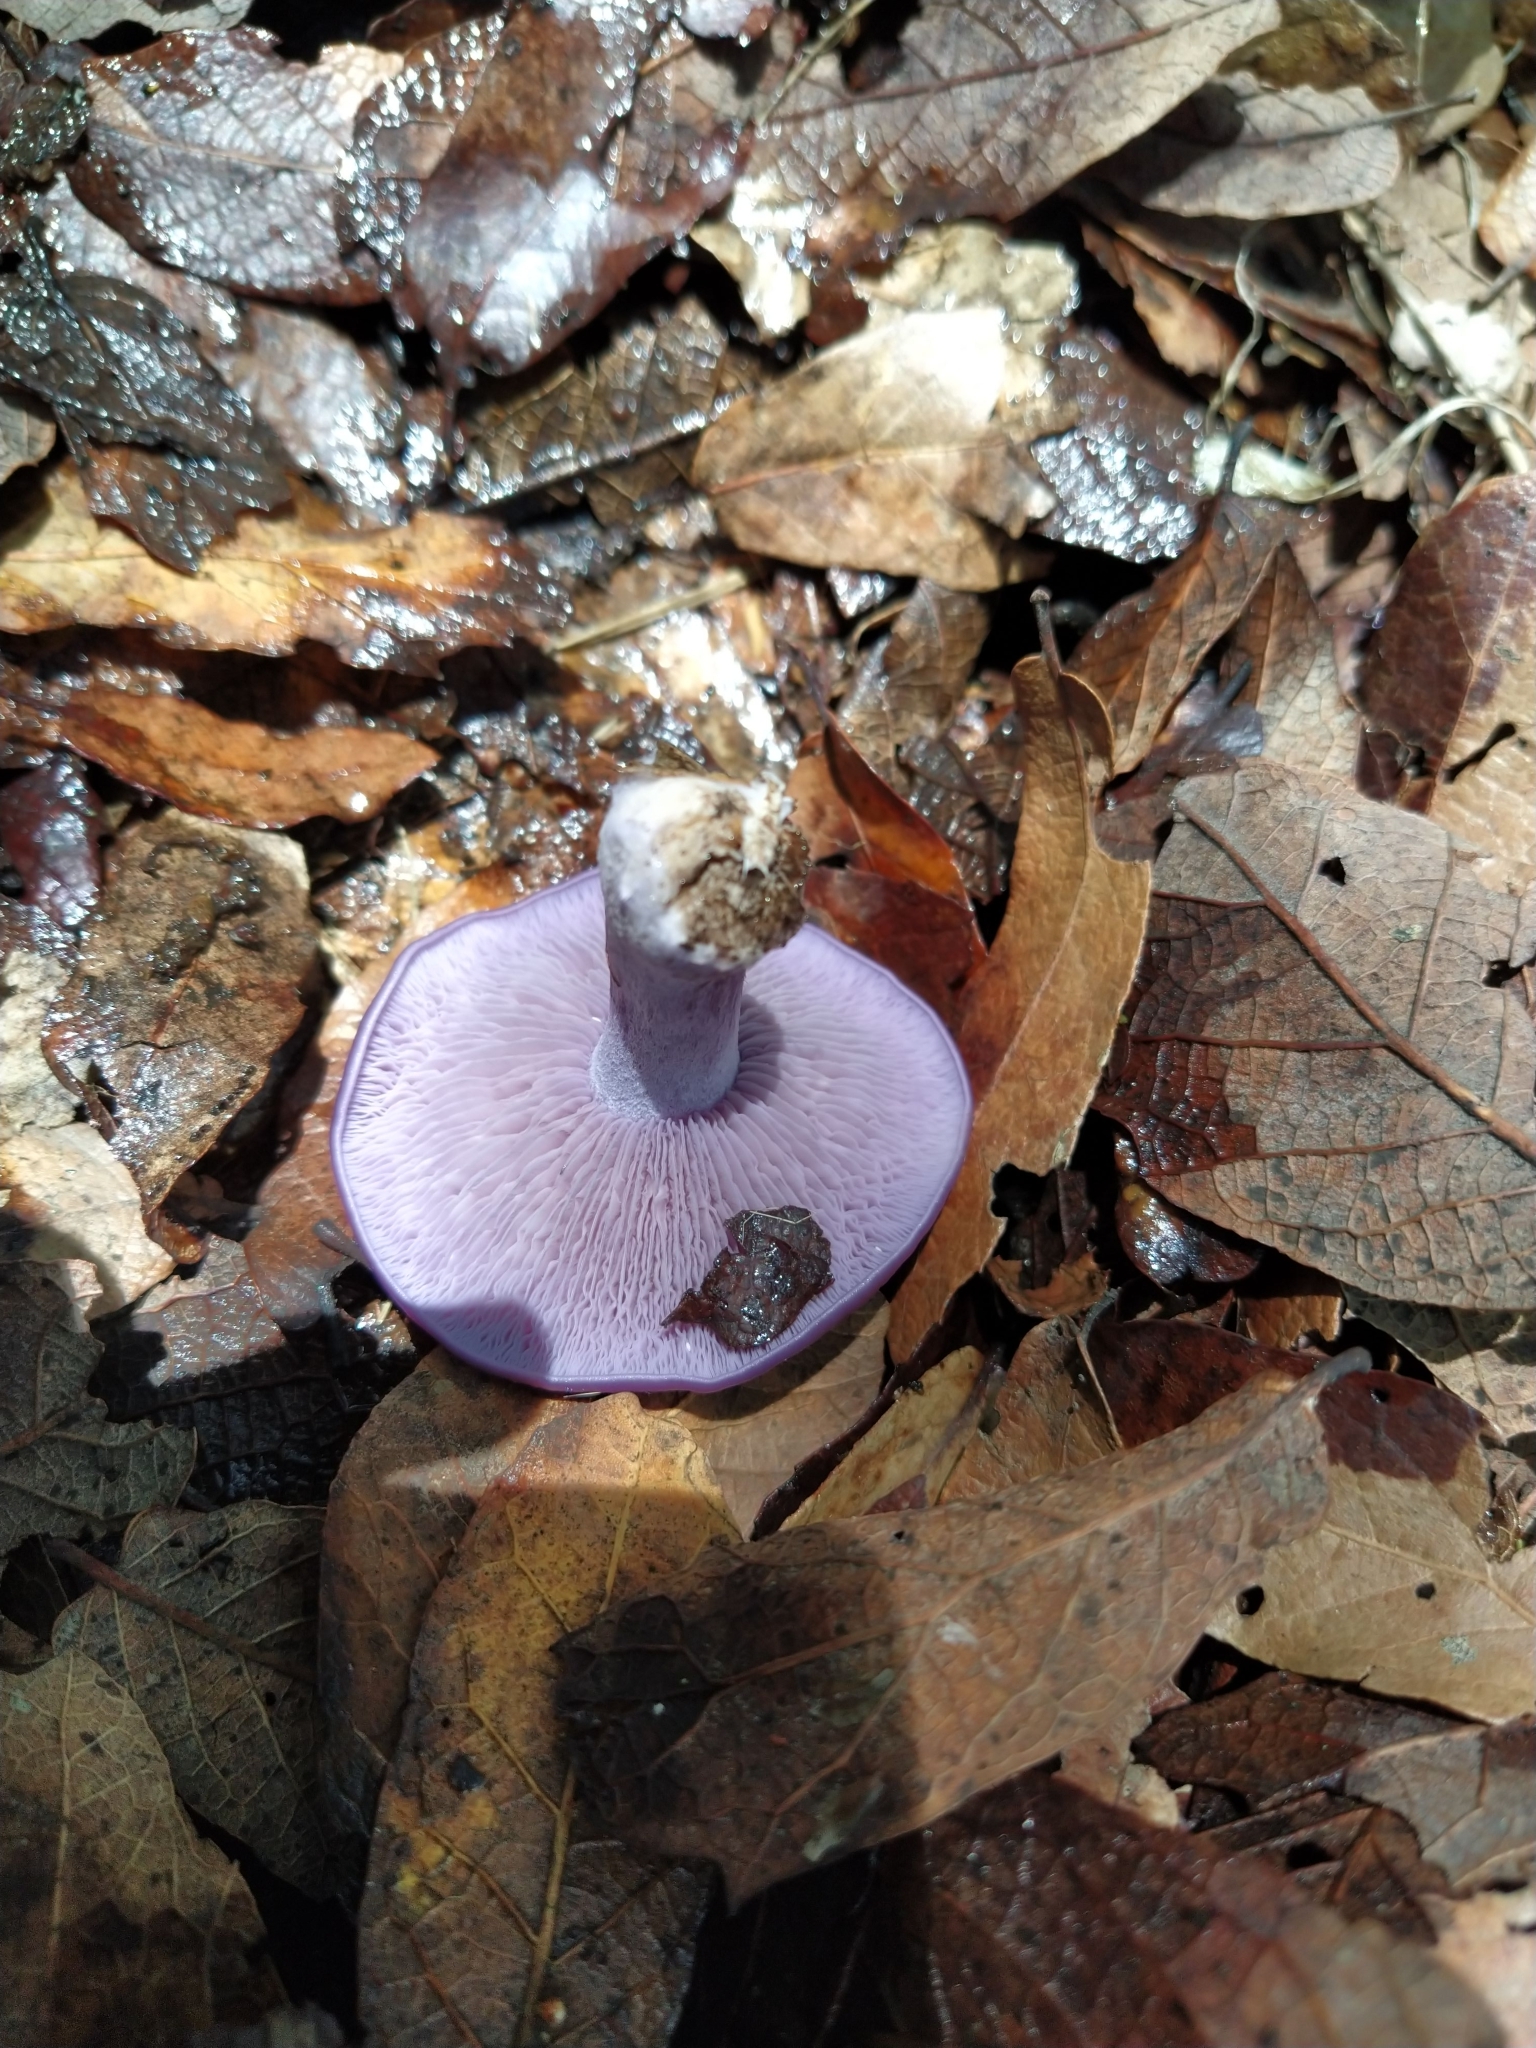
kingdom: Fungi
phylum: Basidiomycota
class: Agaricomycetes
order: Agaricales
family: Tricholomataceae
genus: Collybia
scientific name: Collybia
